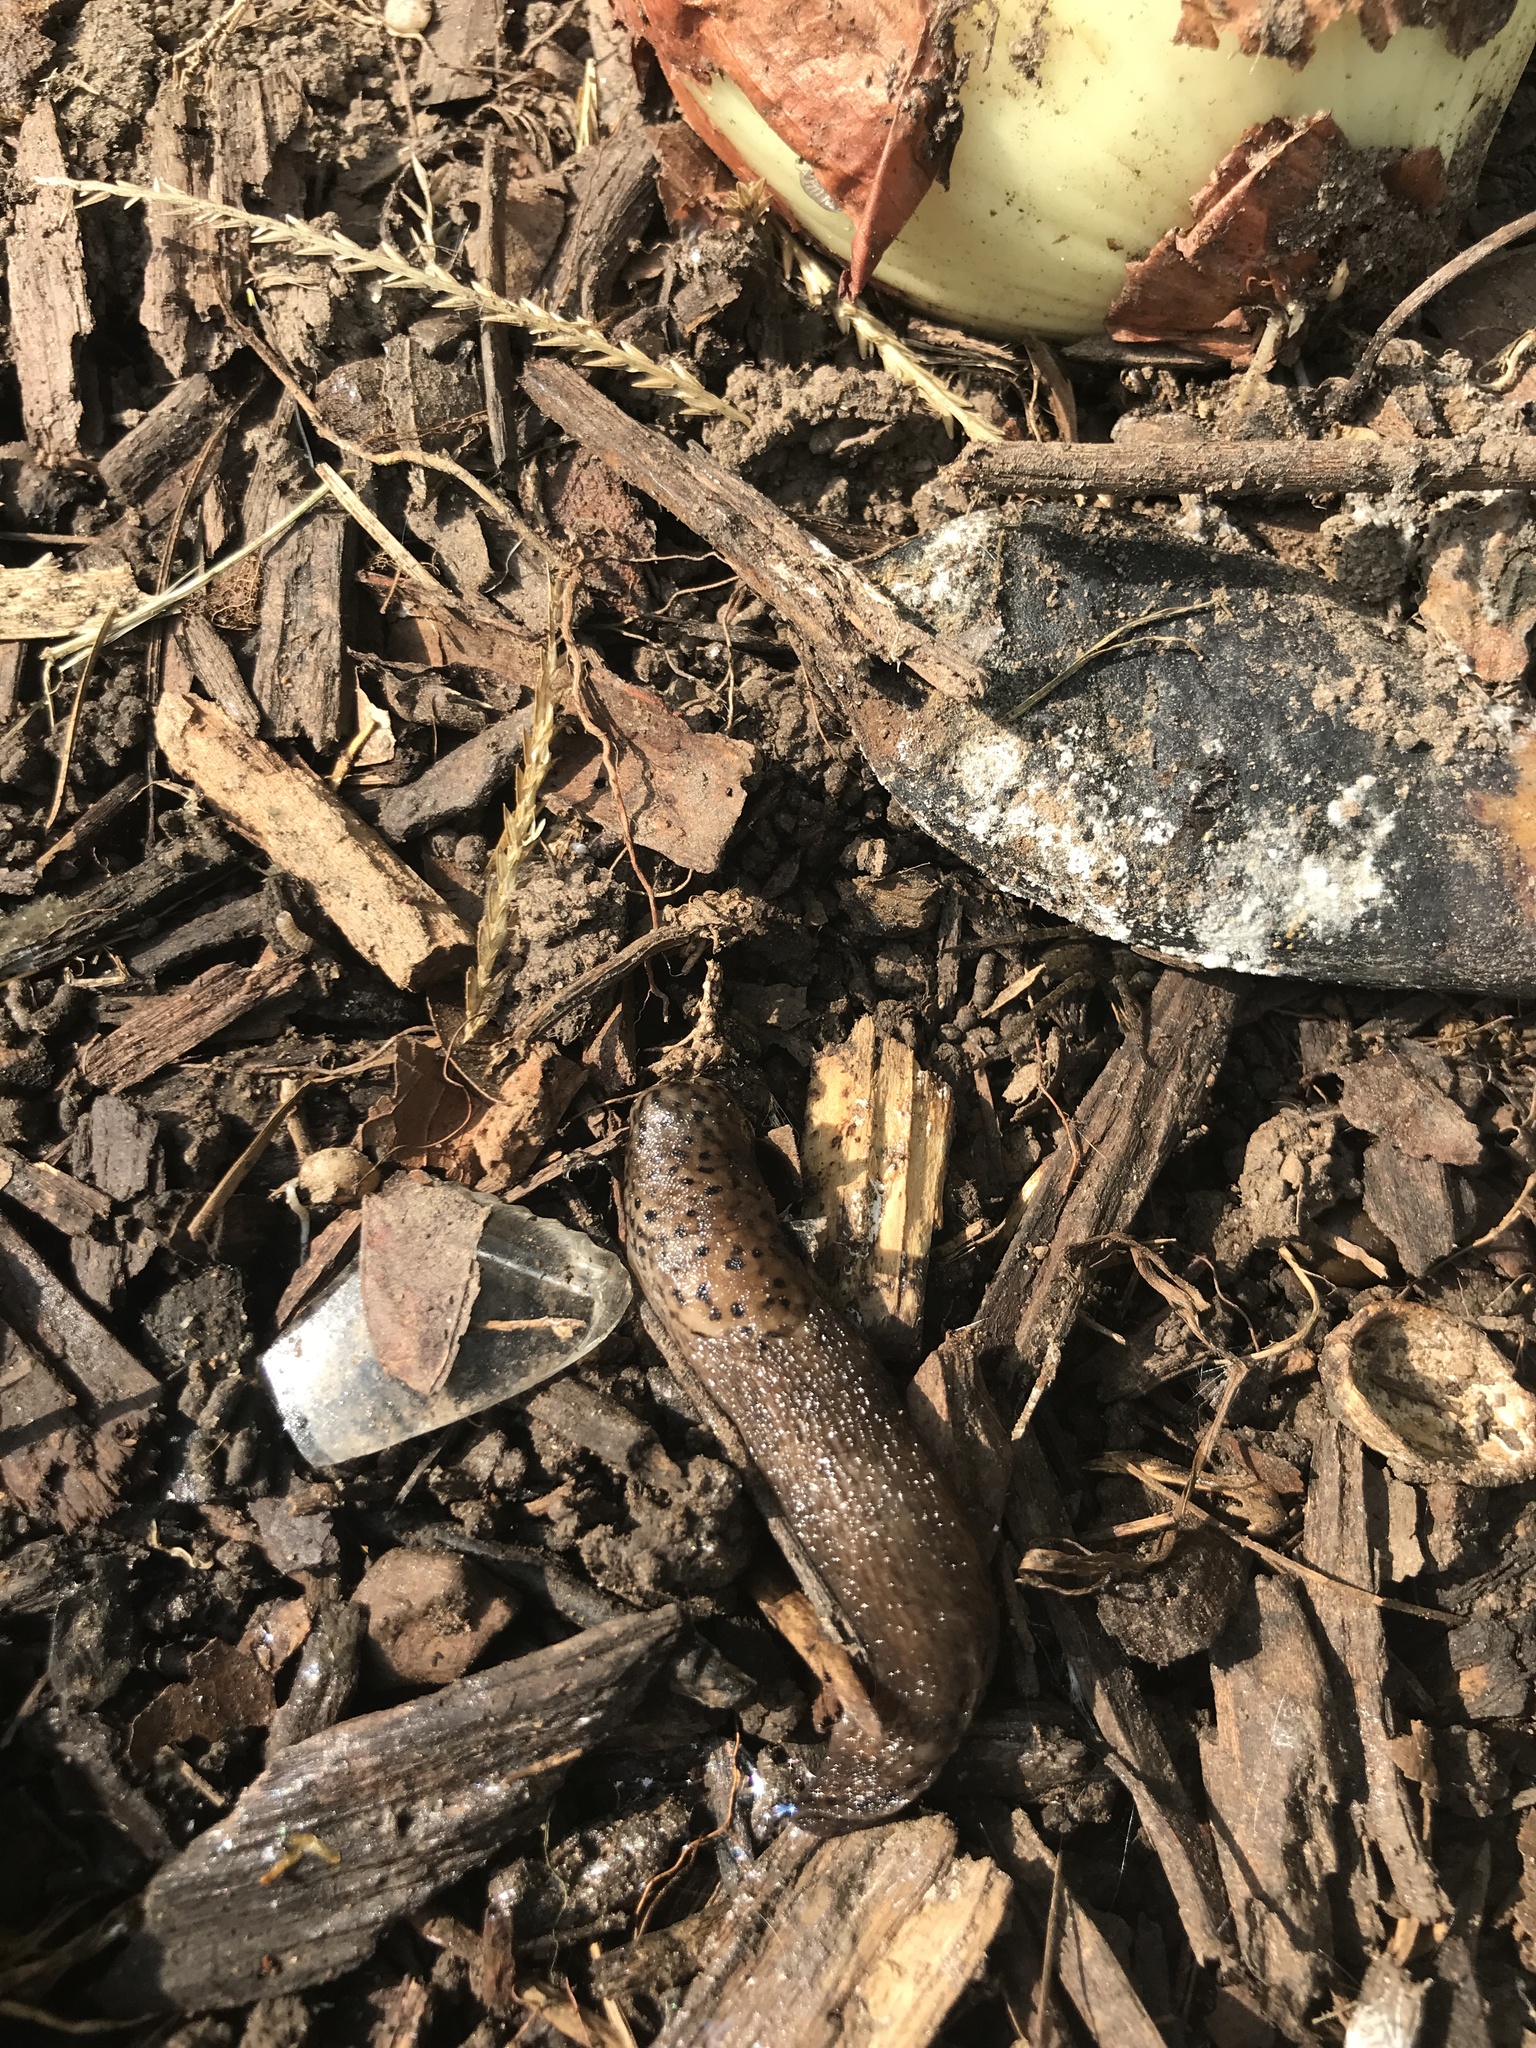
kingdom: Animalia
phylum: Mollusca
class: Gastropoda
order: Stylommatophora
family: Limacidae
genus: Limax
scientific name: Limax maximus
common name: Great grey slug
